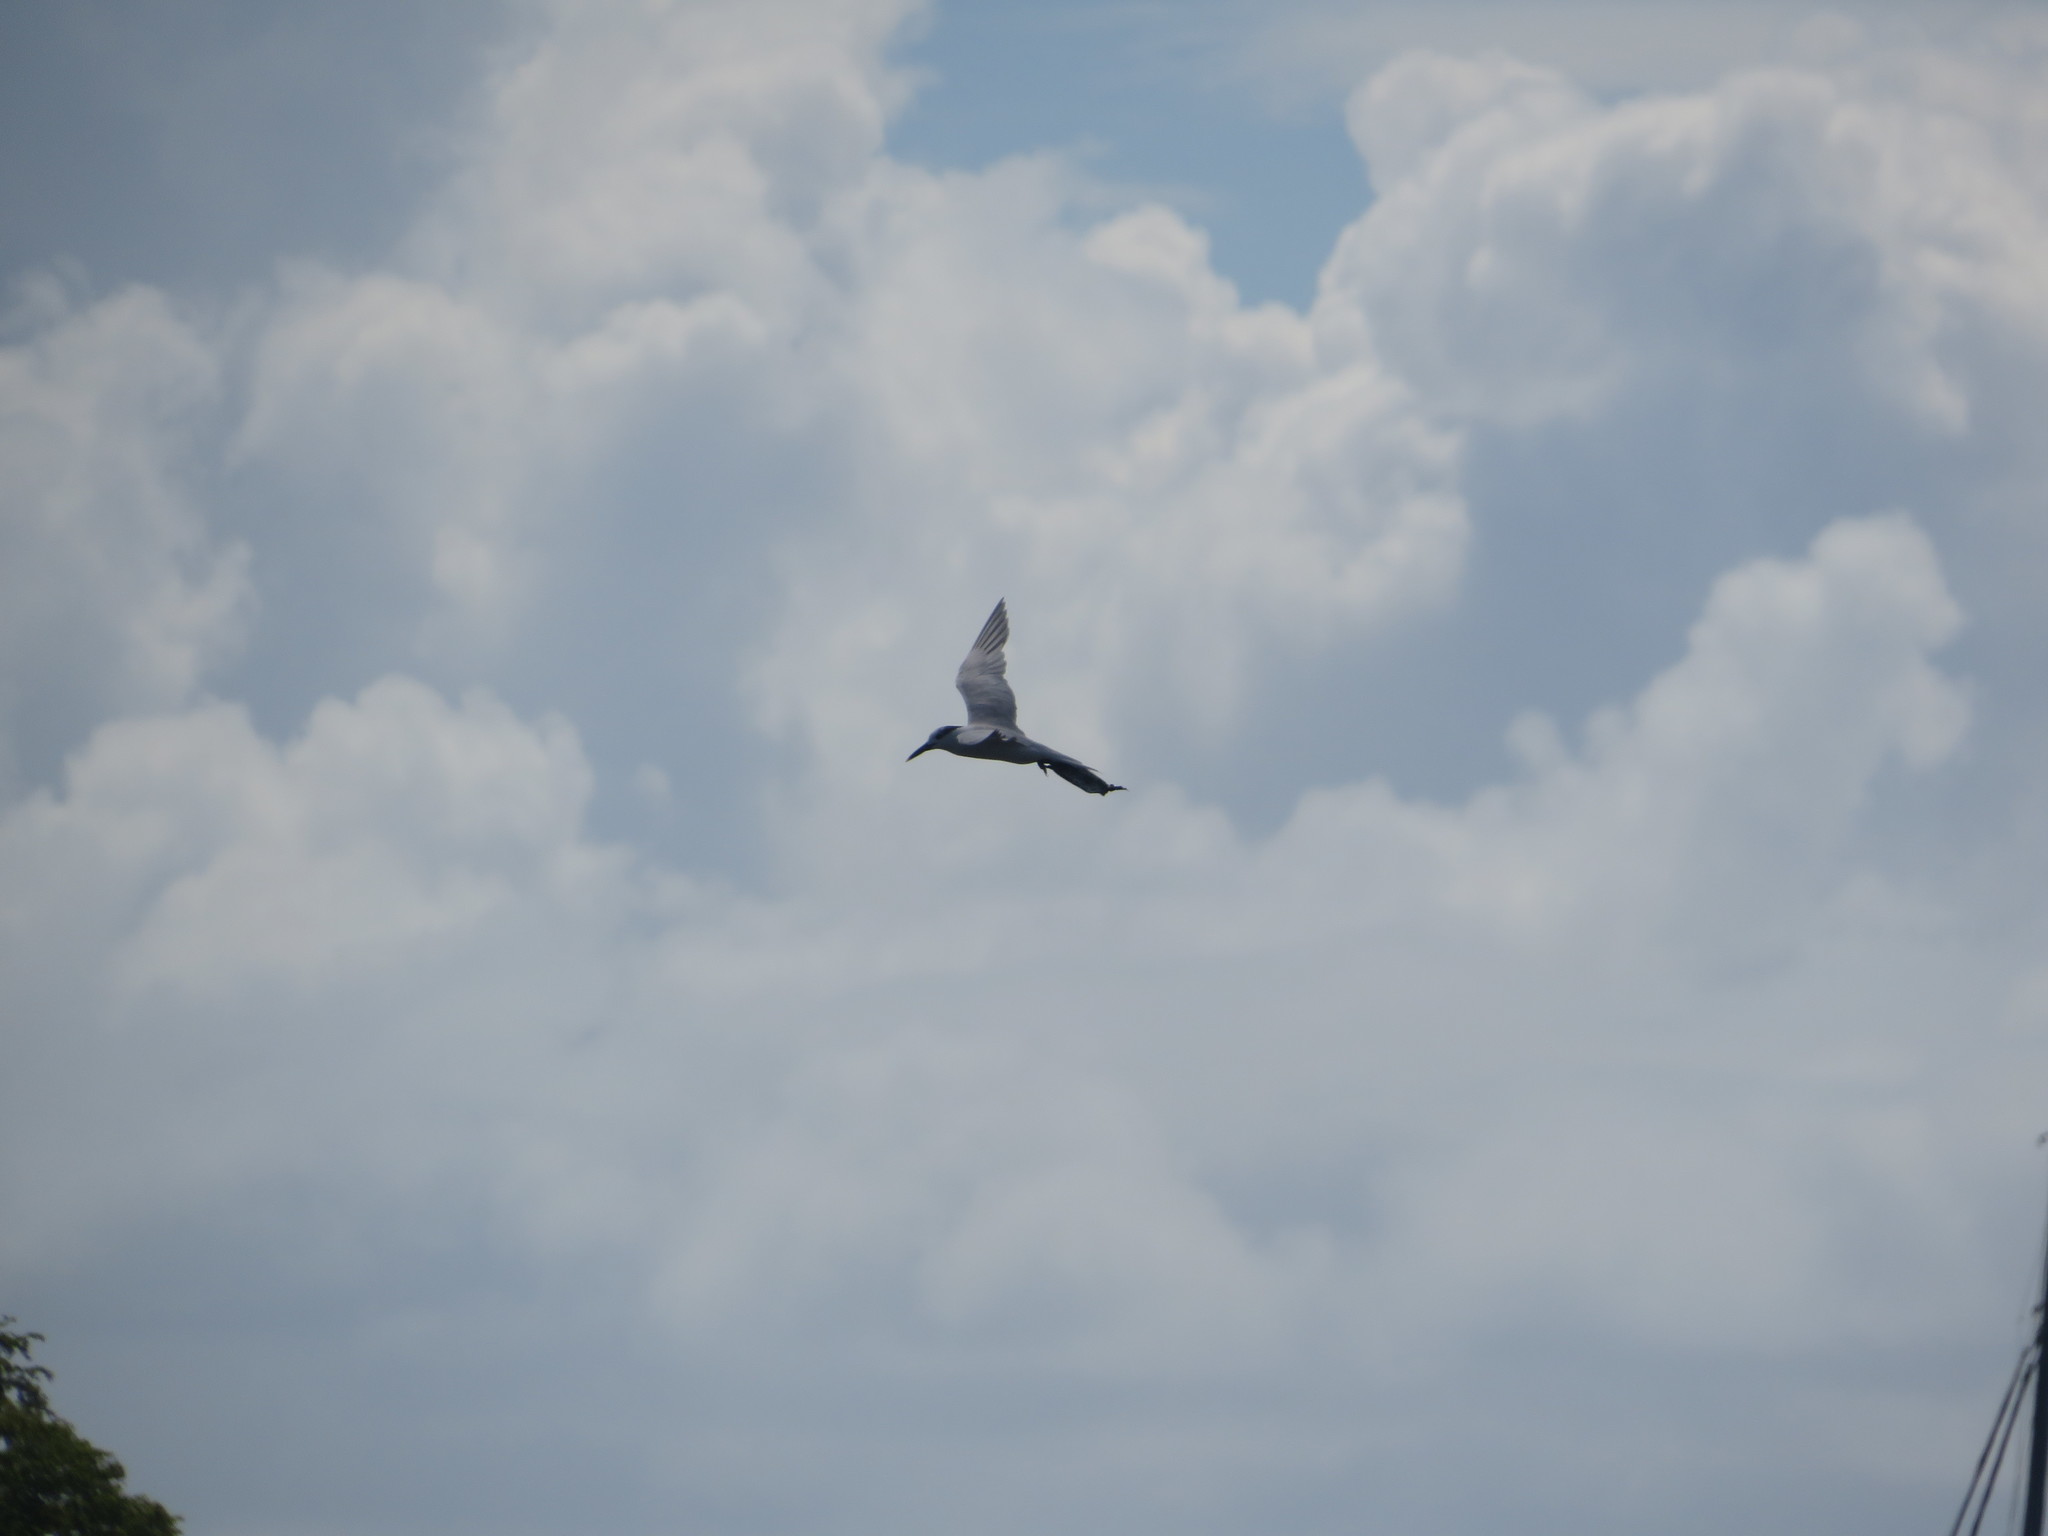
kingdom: Animalia
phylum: Chordata
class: Aves
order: Charadriiformes
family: Laridae
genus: Thalasseus
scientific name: Thalasseus maximus
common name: Royal tern
